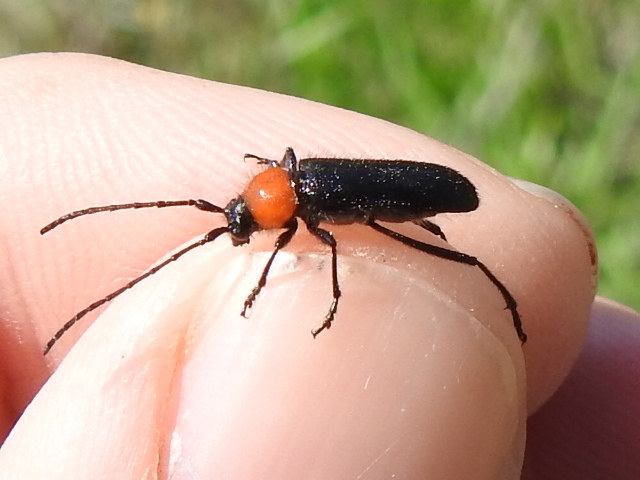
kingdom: Animalia
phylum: Arthropoda
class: Insecta
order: Coleoptera
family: Cerambycidae
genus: Batyle
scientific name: Batyle ignicollis
